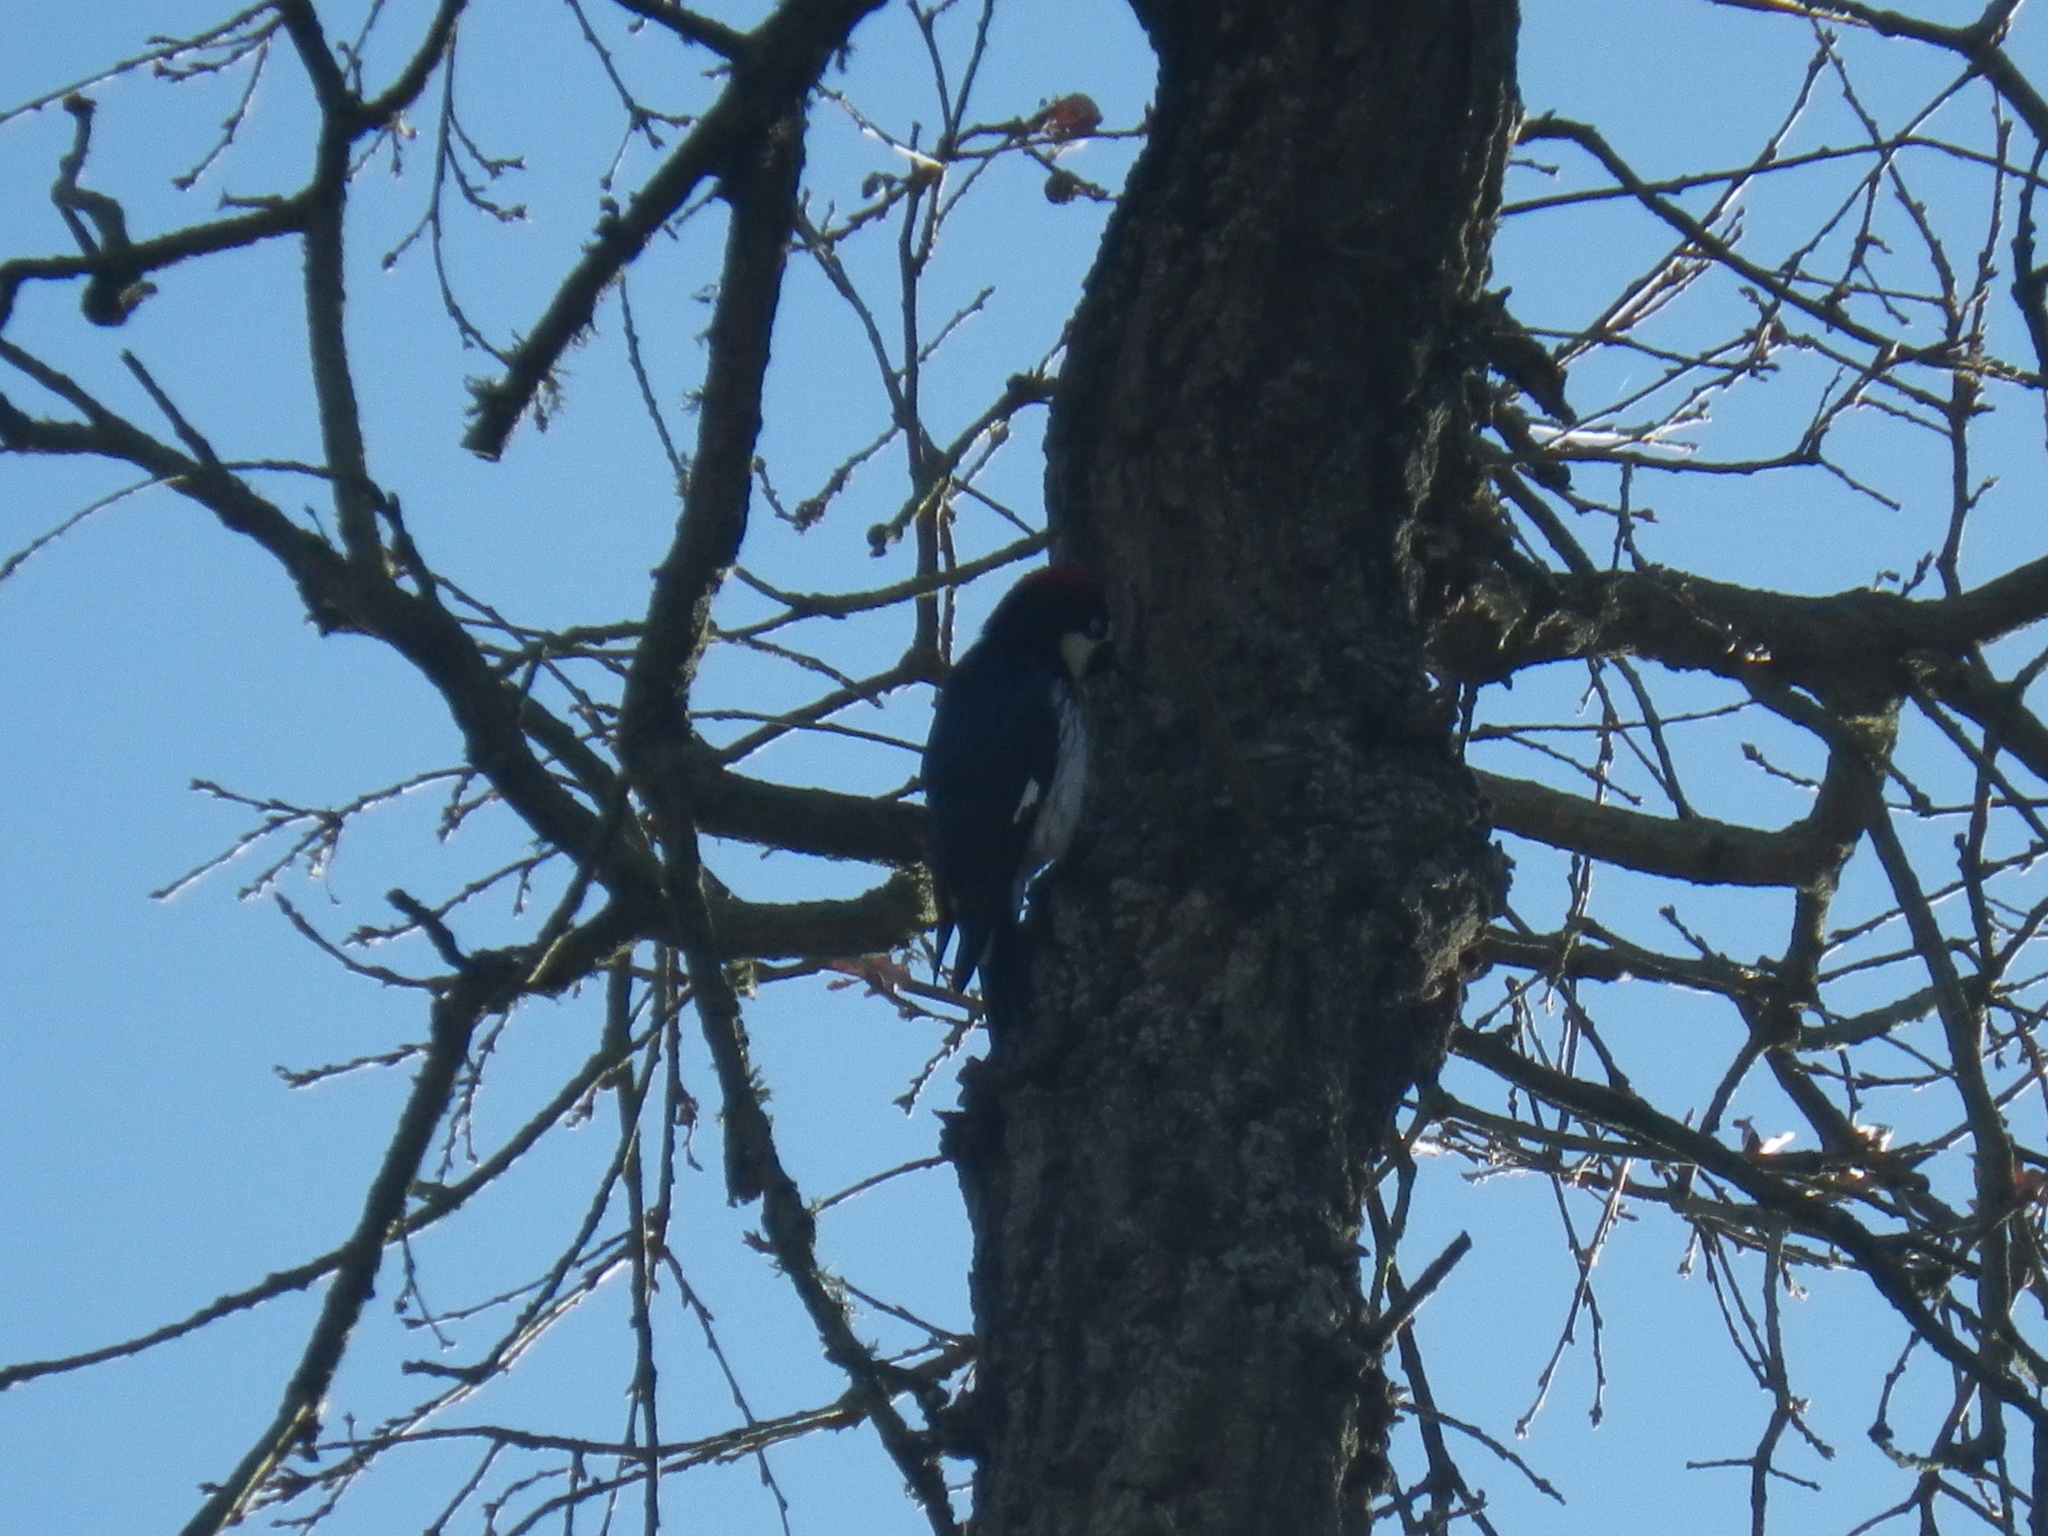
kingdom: Animalia
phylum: Chordata
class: Aves
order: Piciformes
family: Picidae
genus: Melanerpes
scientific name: Melanerpes formicivorus
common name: Acorn woodpecker
